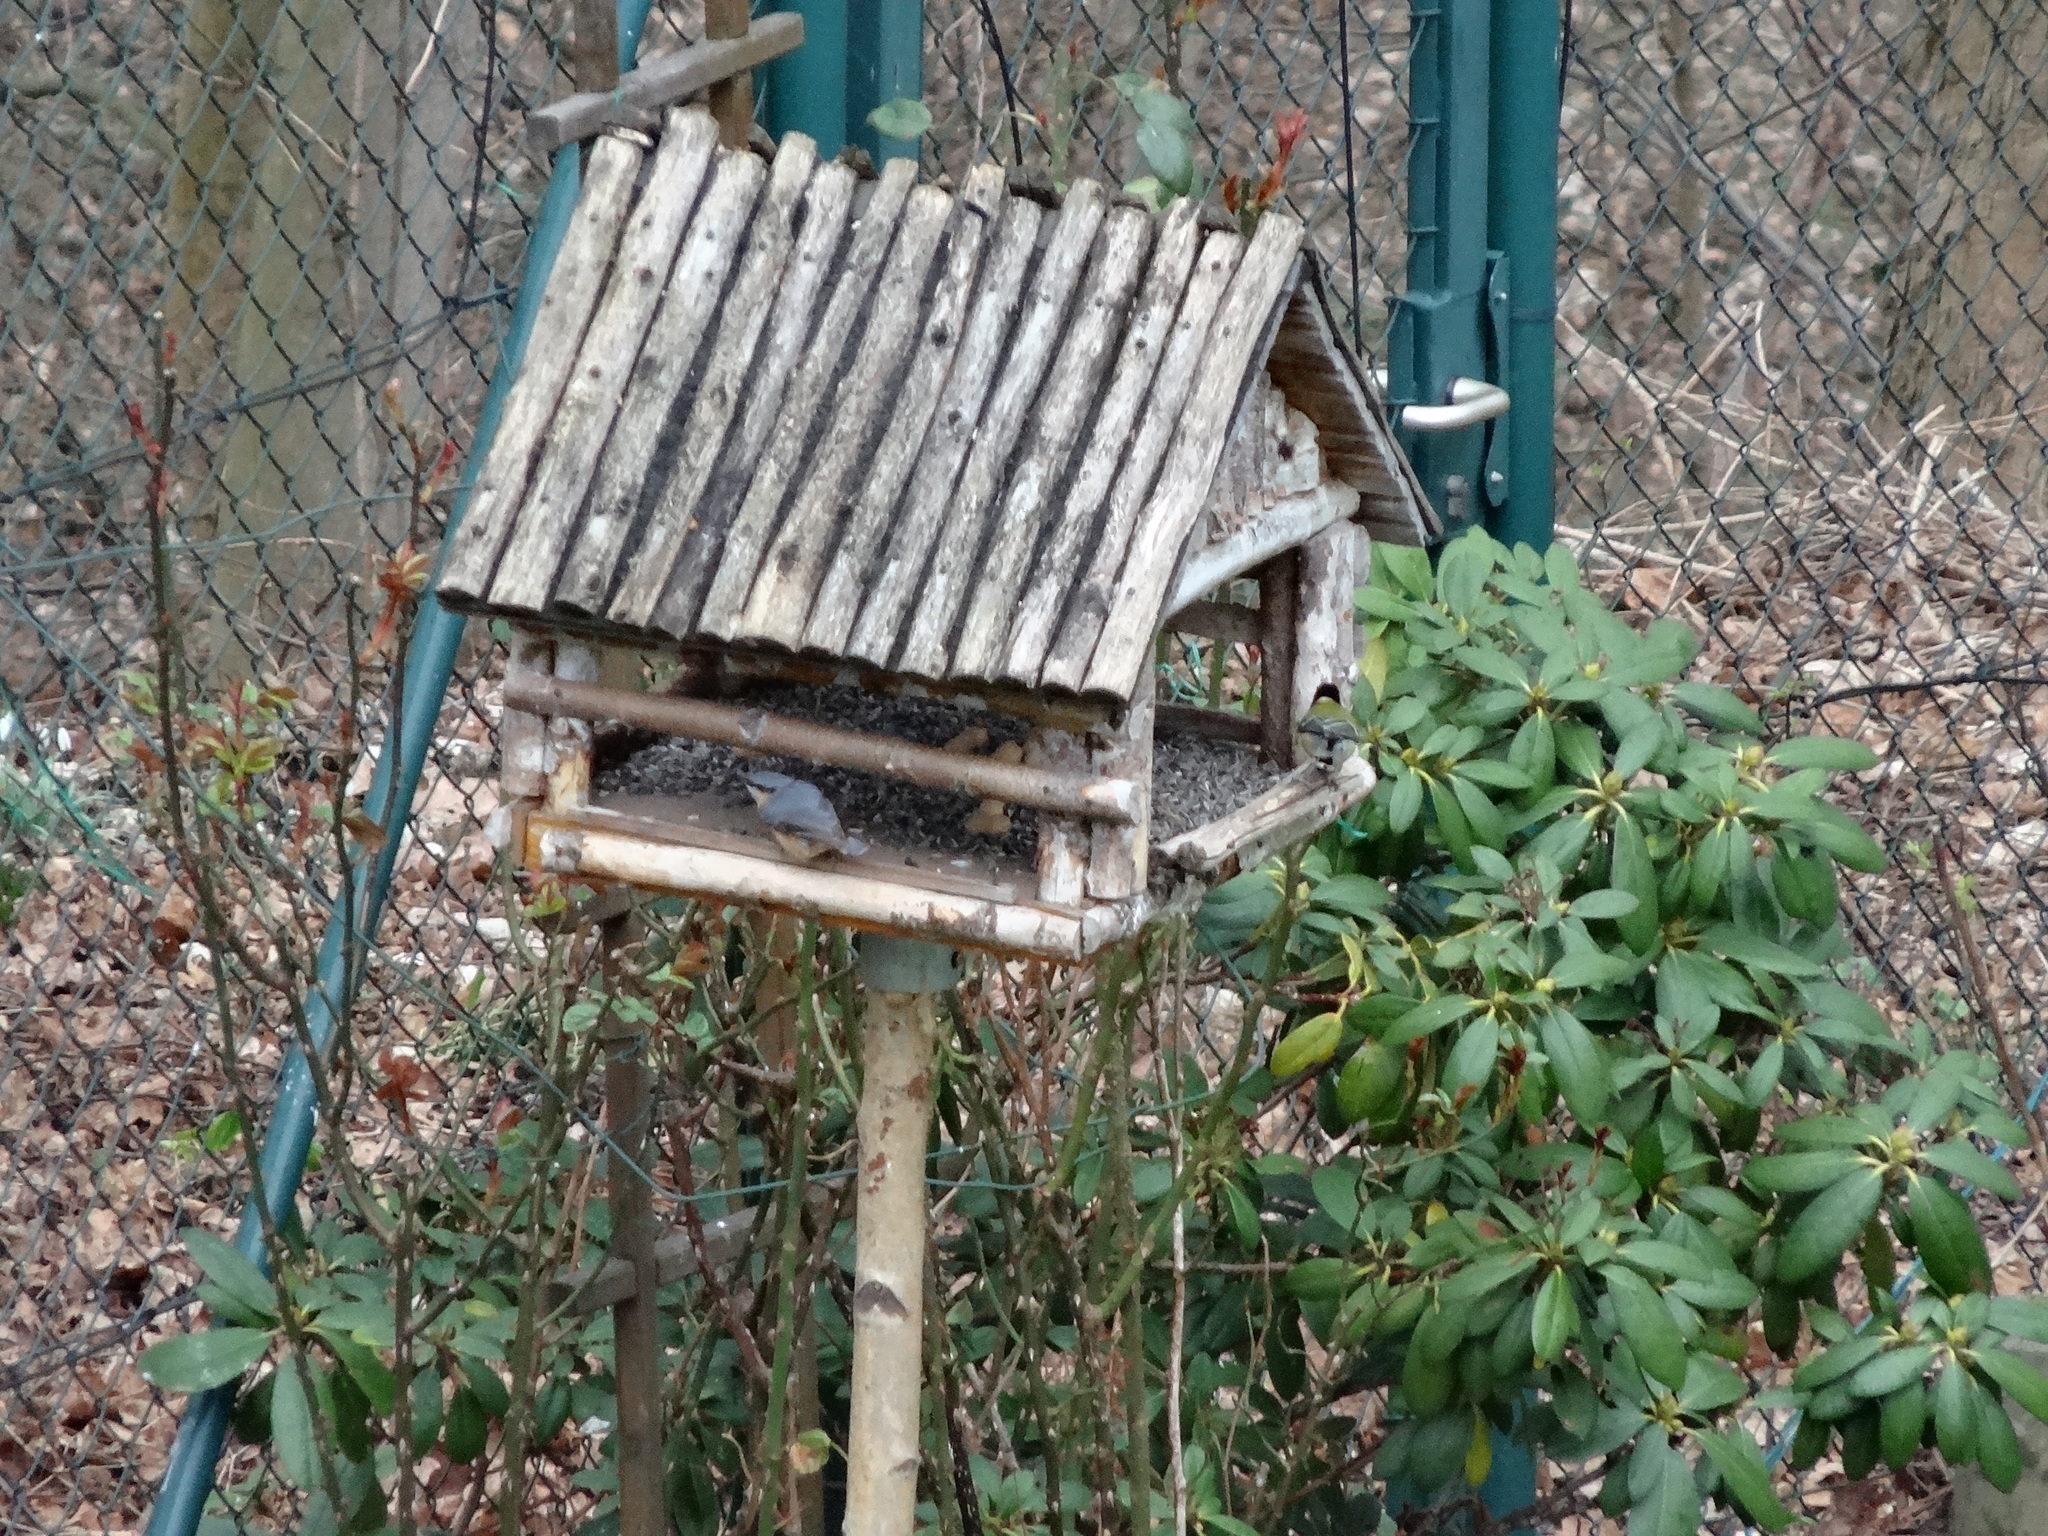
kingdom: Animalia
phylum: Chordata
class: Aves
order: Passeriformes
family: Sittidae
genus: Sitta
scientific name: Sitta europaea
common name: Eurasian nuthatch
